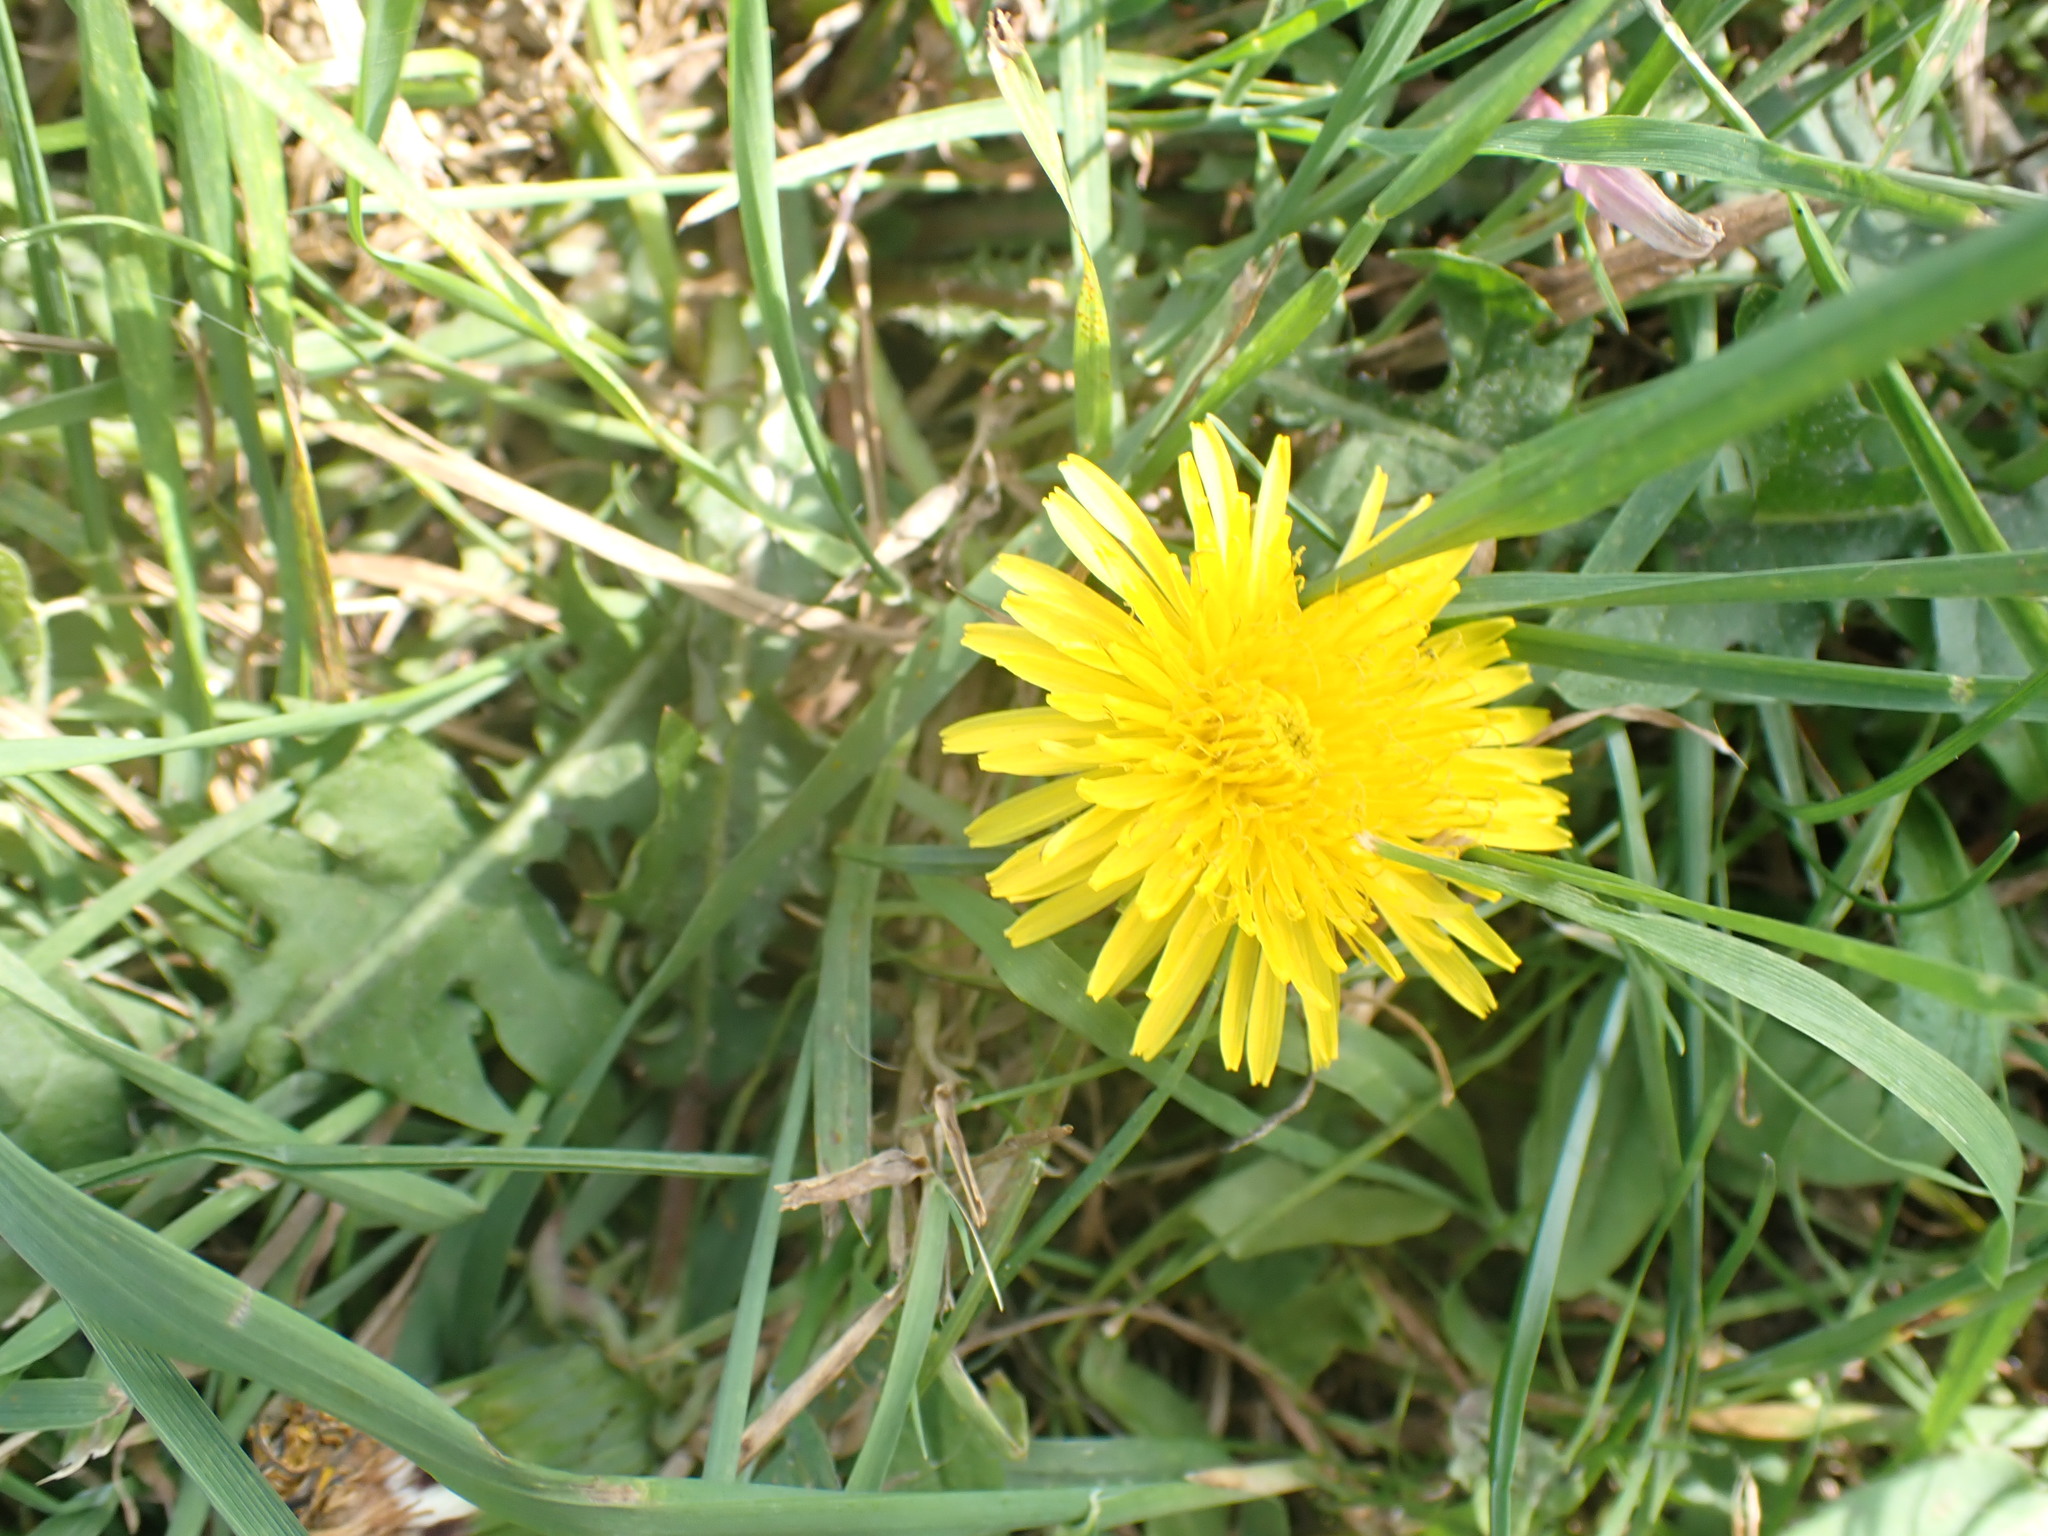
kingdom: Plantae
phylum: Tracheophyta
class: Magnoliopsida
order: Asterales
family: Asteraceae
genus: Taraxacum
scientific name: Taraxacum officinale
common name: Common dandelion
